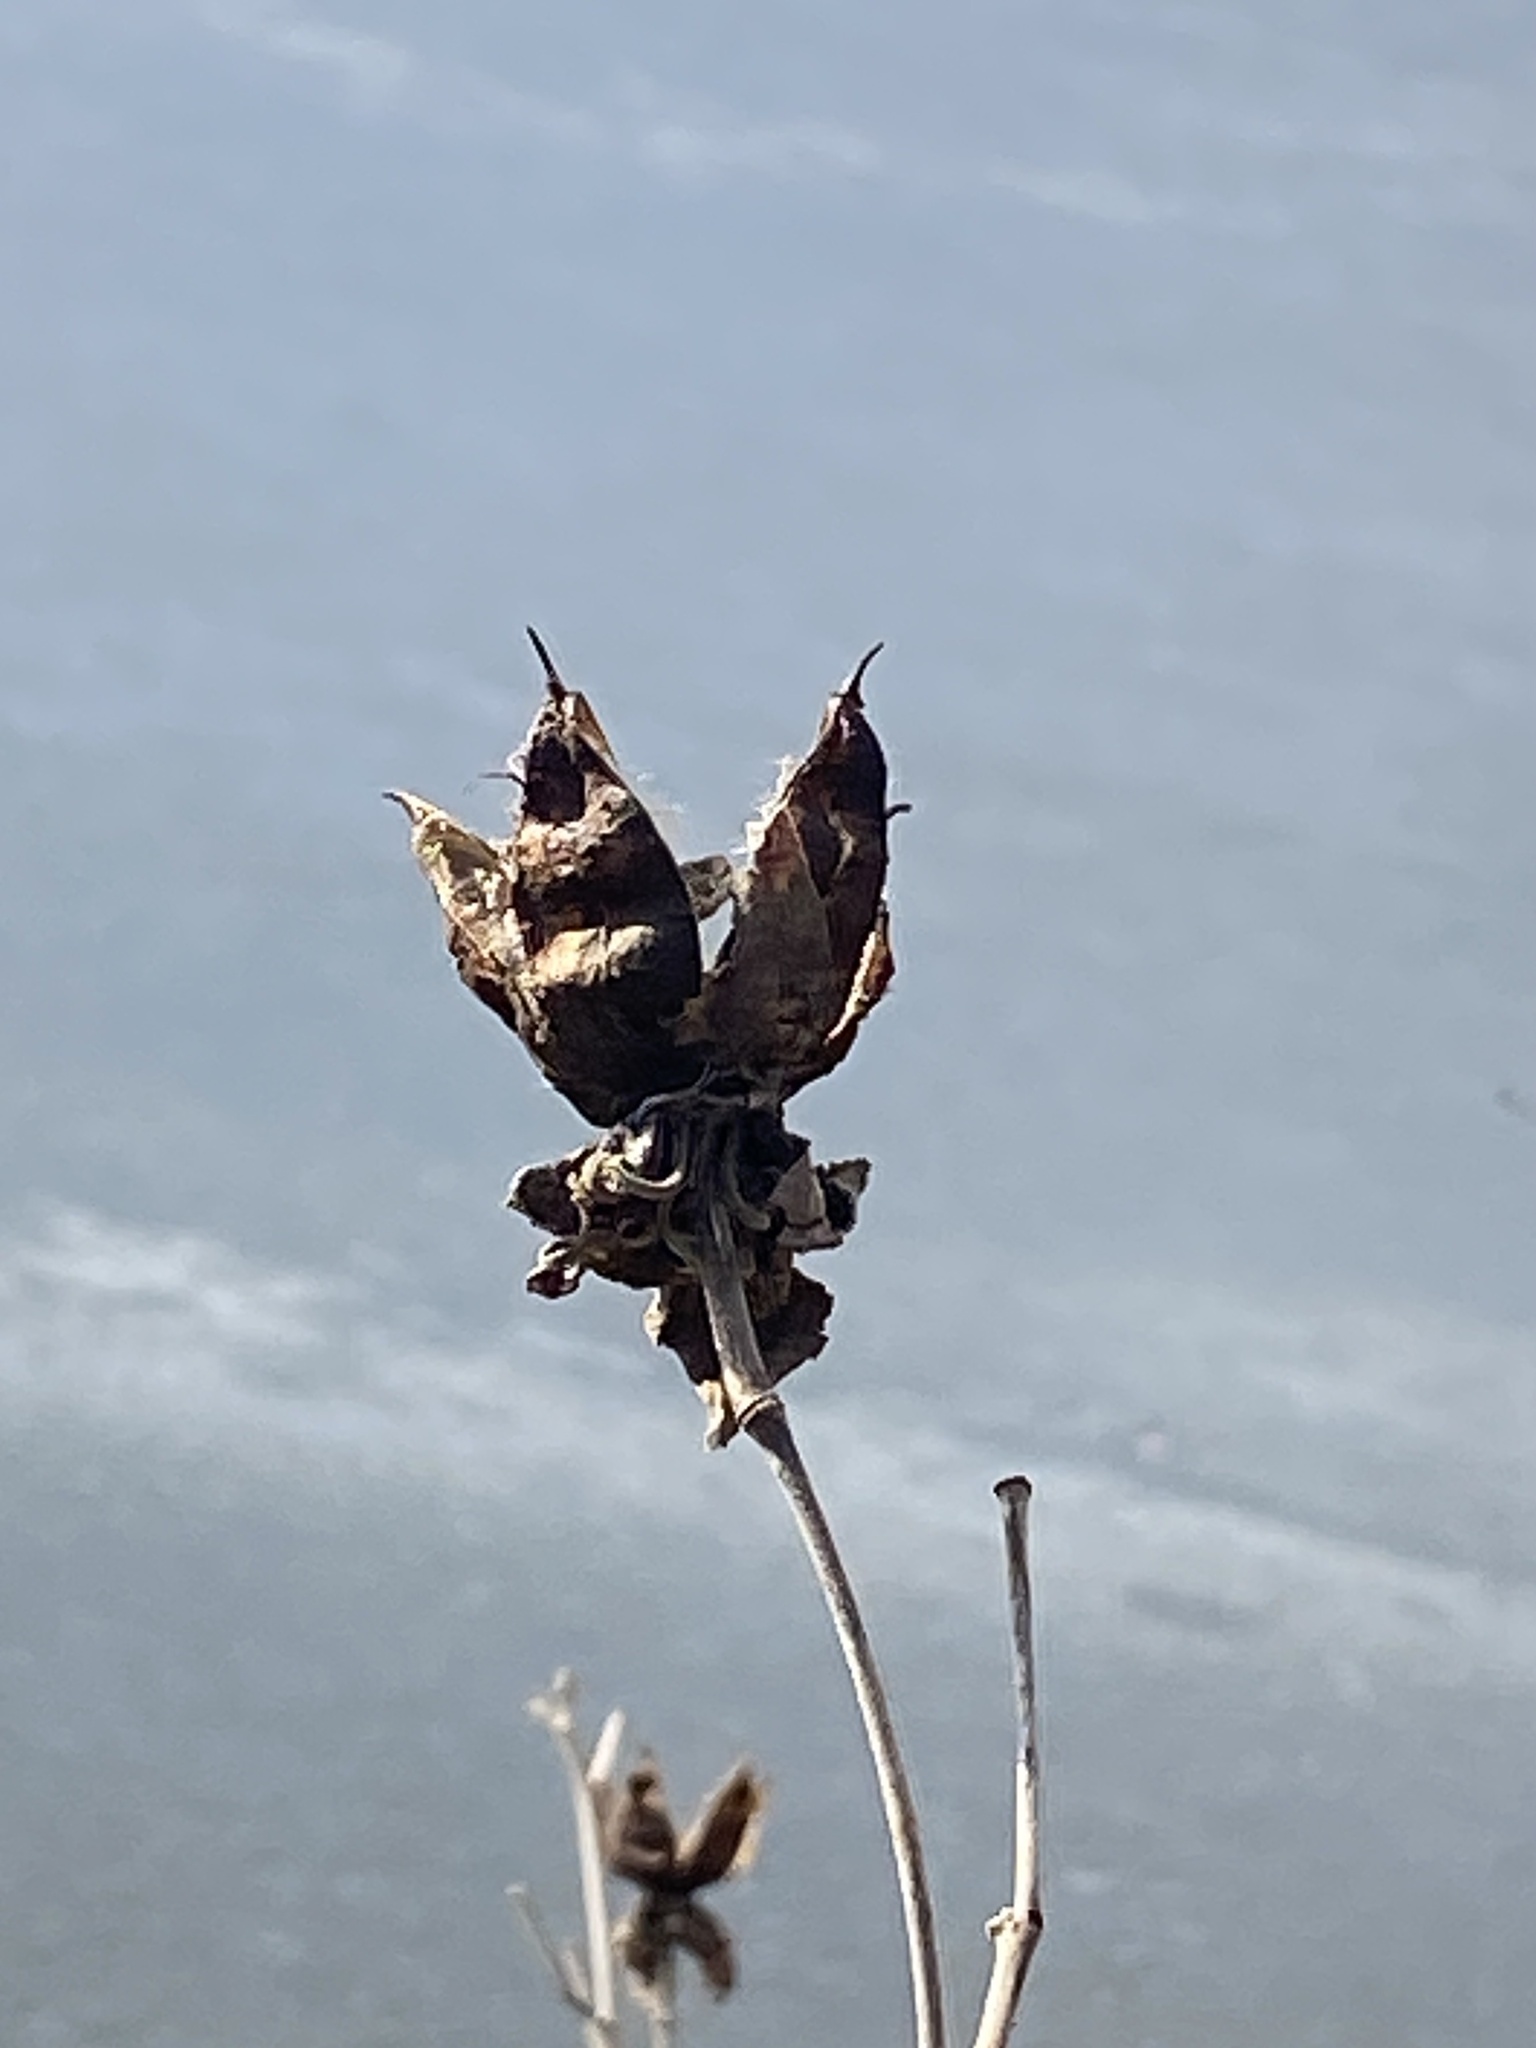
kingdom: Plantae
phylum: Tracheophyta
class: Magnoliopsida
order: Malvales
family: Malvaceae
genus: Hibiscus
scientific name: Hibiscus moscheutos
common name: Common rose-mallow
